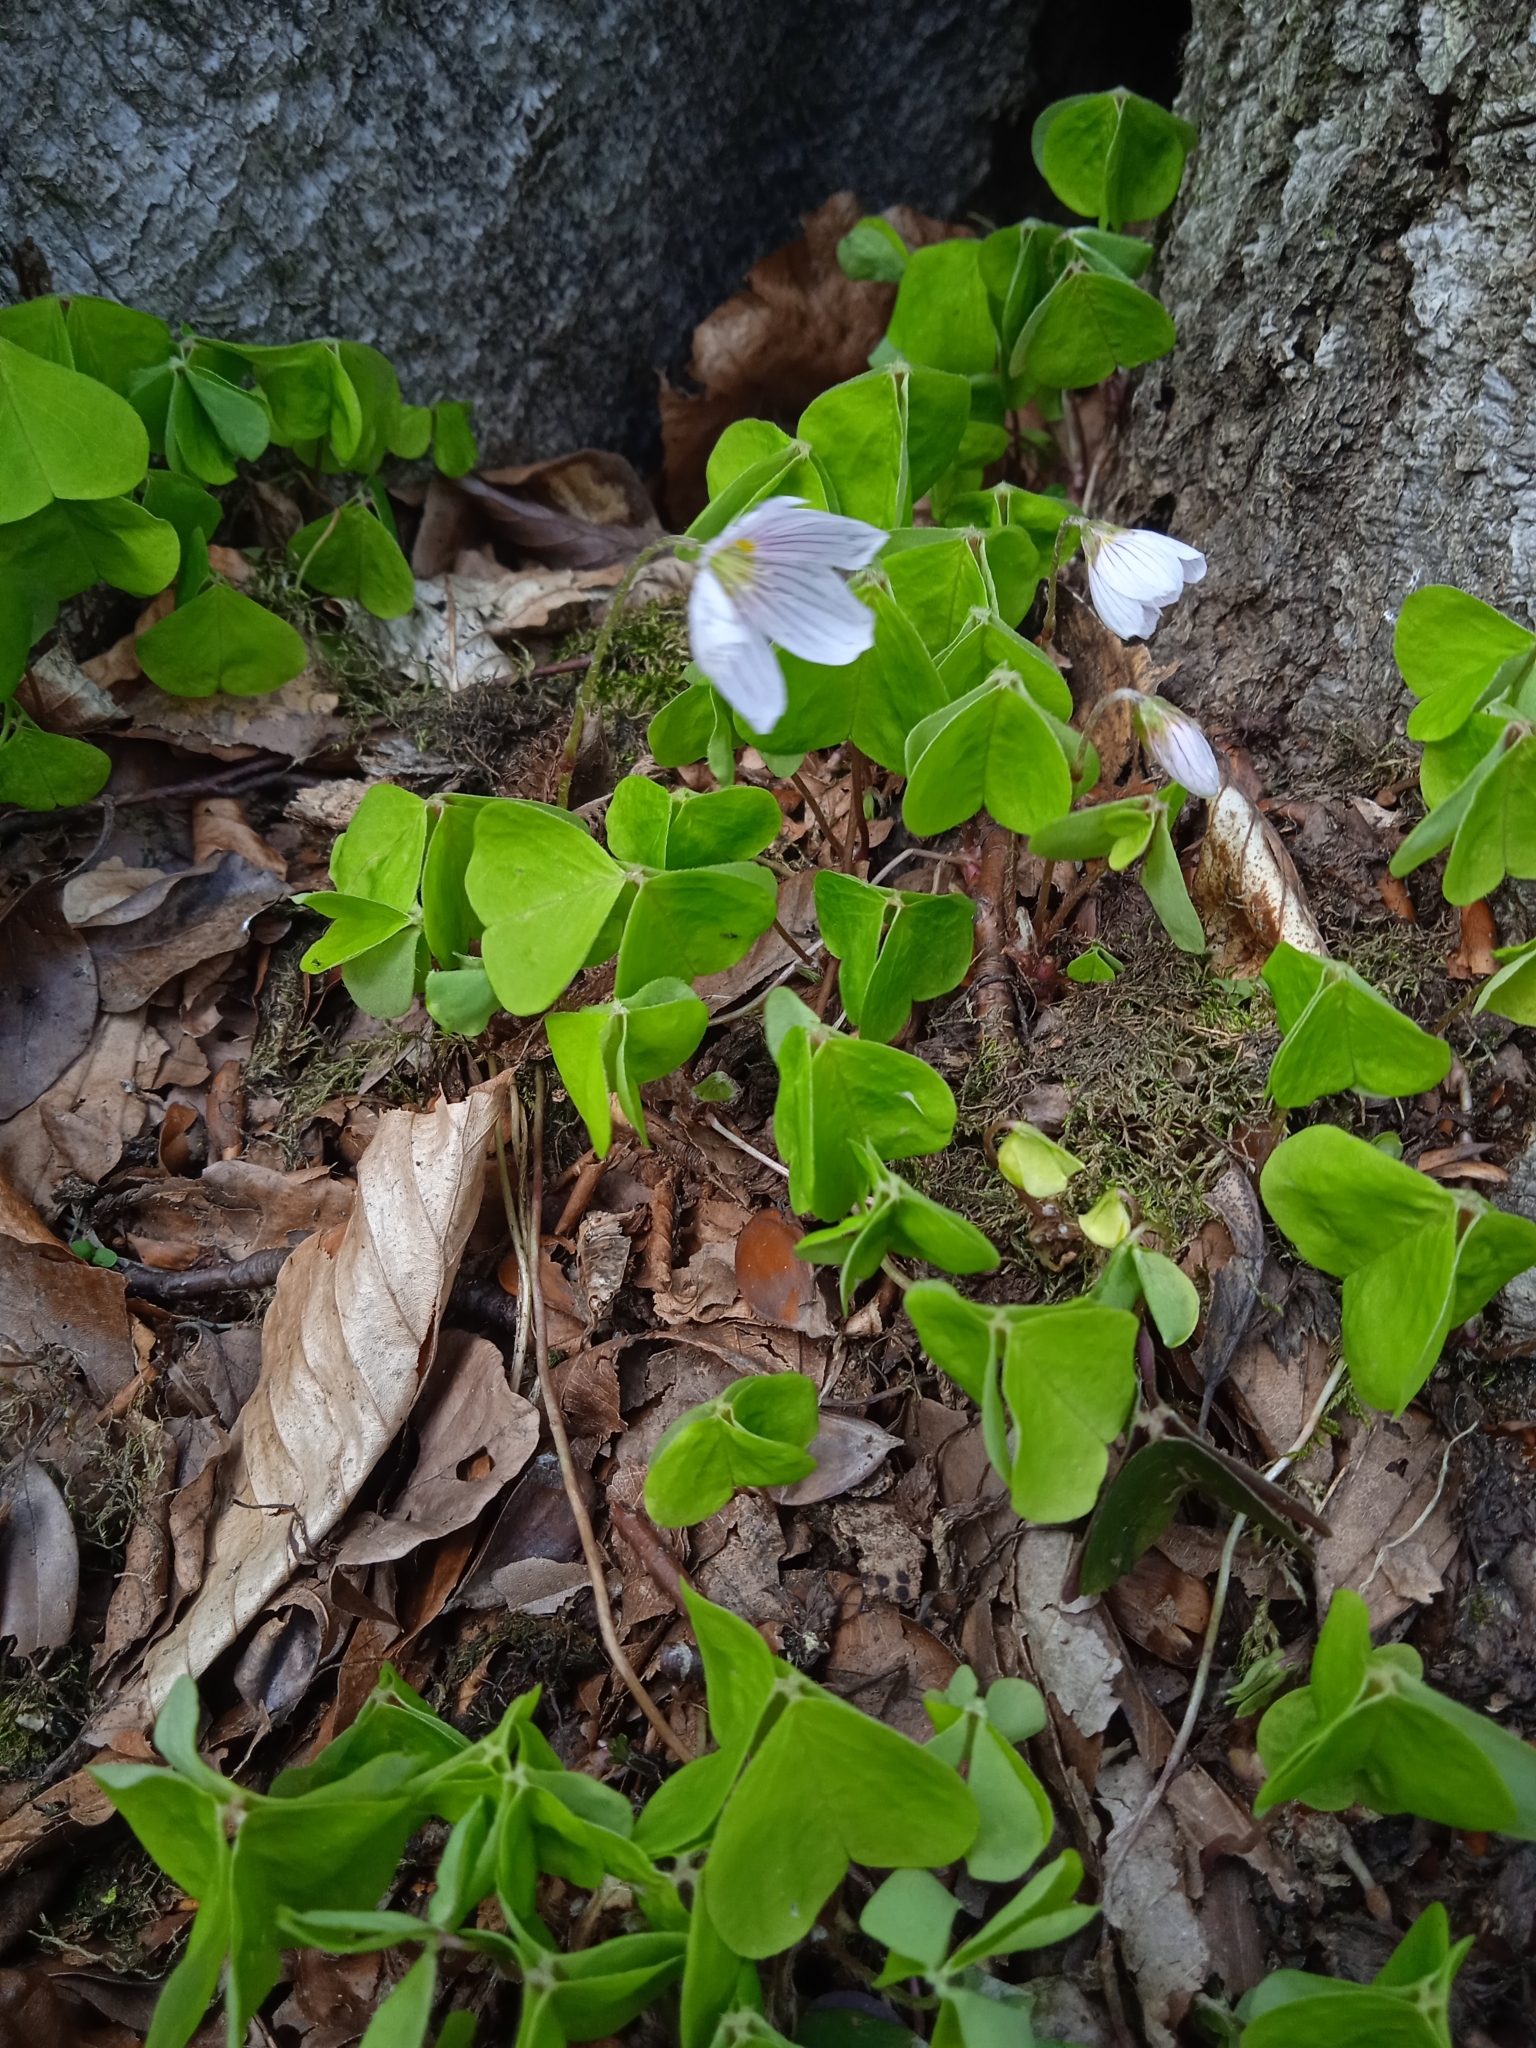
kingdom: Plantae
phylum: Tracheophyta
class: Magnoliopsida
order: Oxalidales
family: Oxalidaceae
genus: Oxalis
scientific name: Oxalis acetosella
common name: Wood-sorrel
